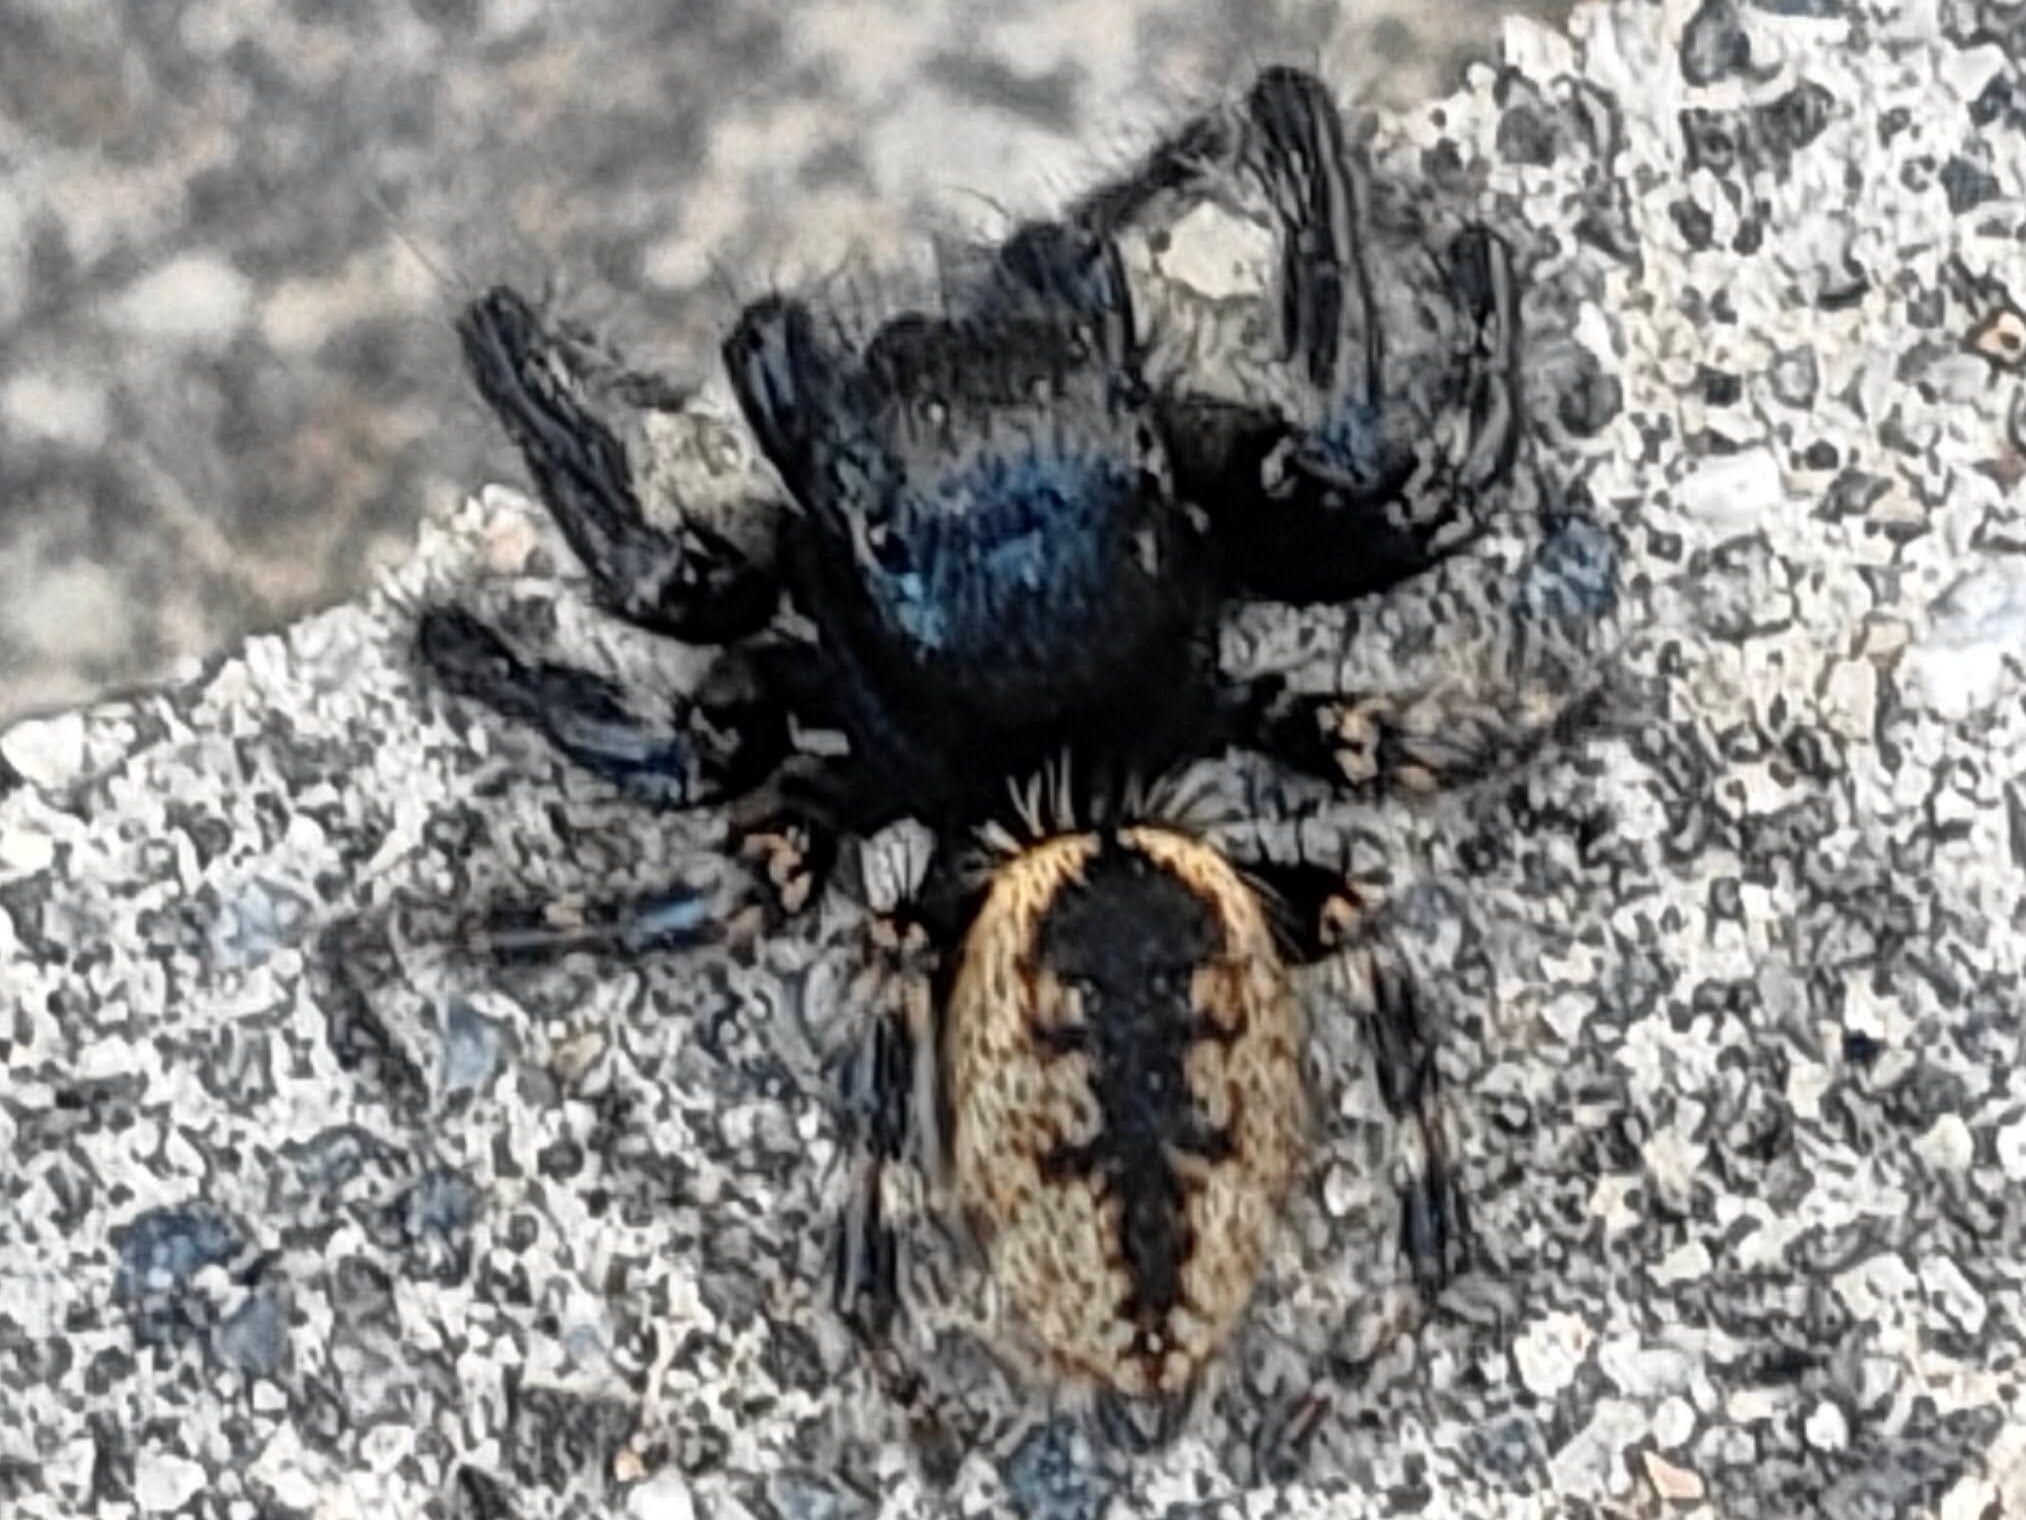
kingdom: Animalia
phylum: Arthropoda
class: Arachnida
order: Araneae
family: Salticidae
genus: Carrhotus
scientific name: Carrhotus xanthogramma
